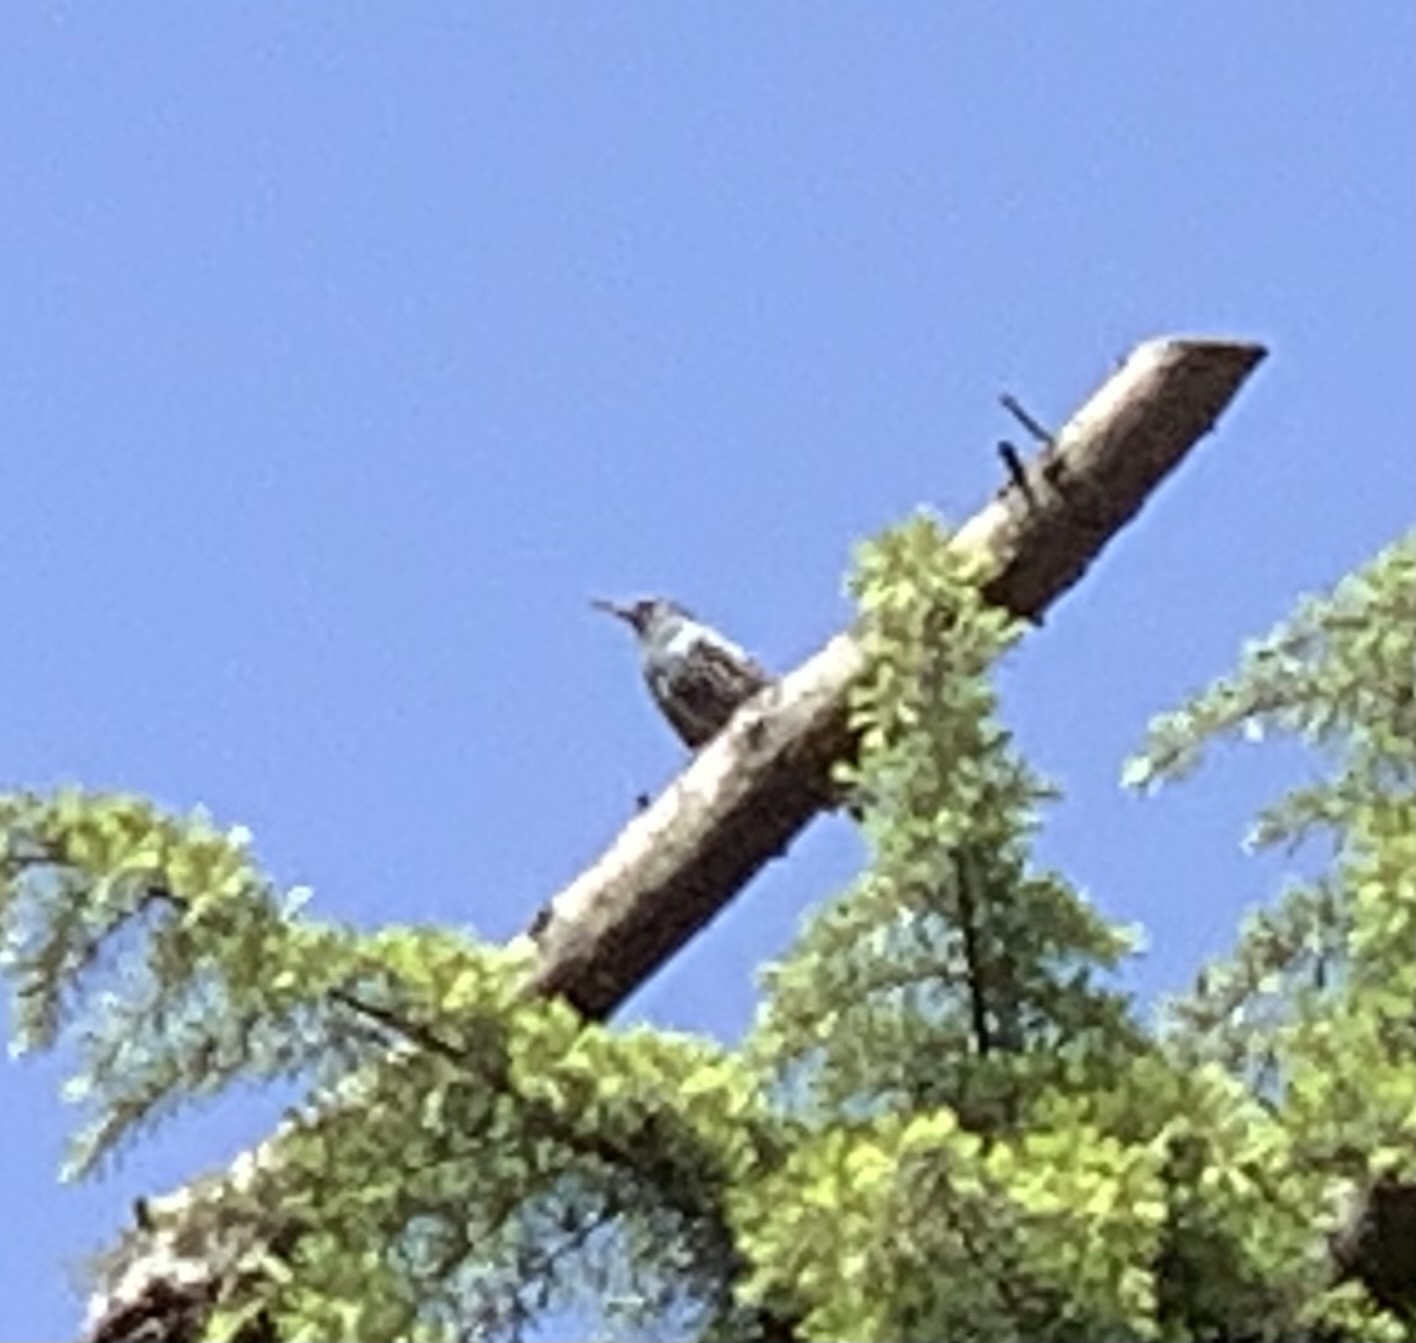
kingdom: Animalia
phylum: Chordata
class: Aves
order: Passeriformes
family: Sturnidae
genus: Sturnus
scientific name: Sturnus vulgaris
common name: Common starling
